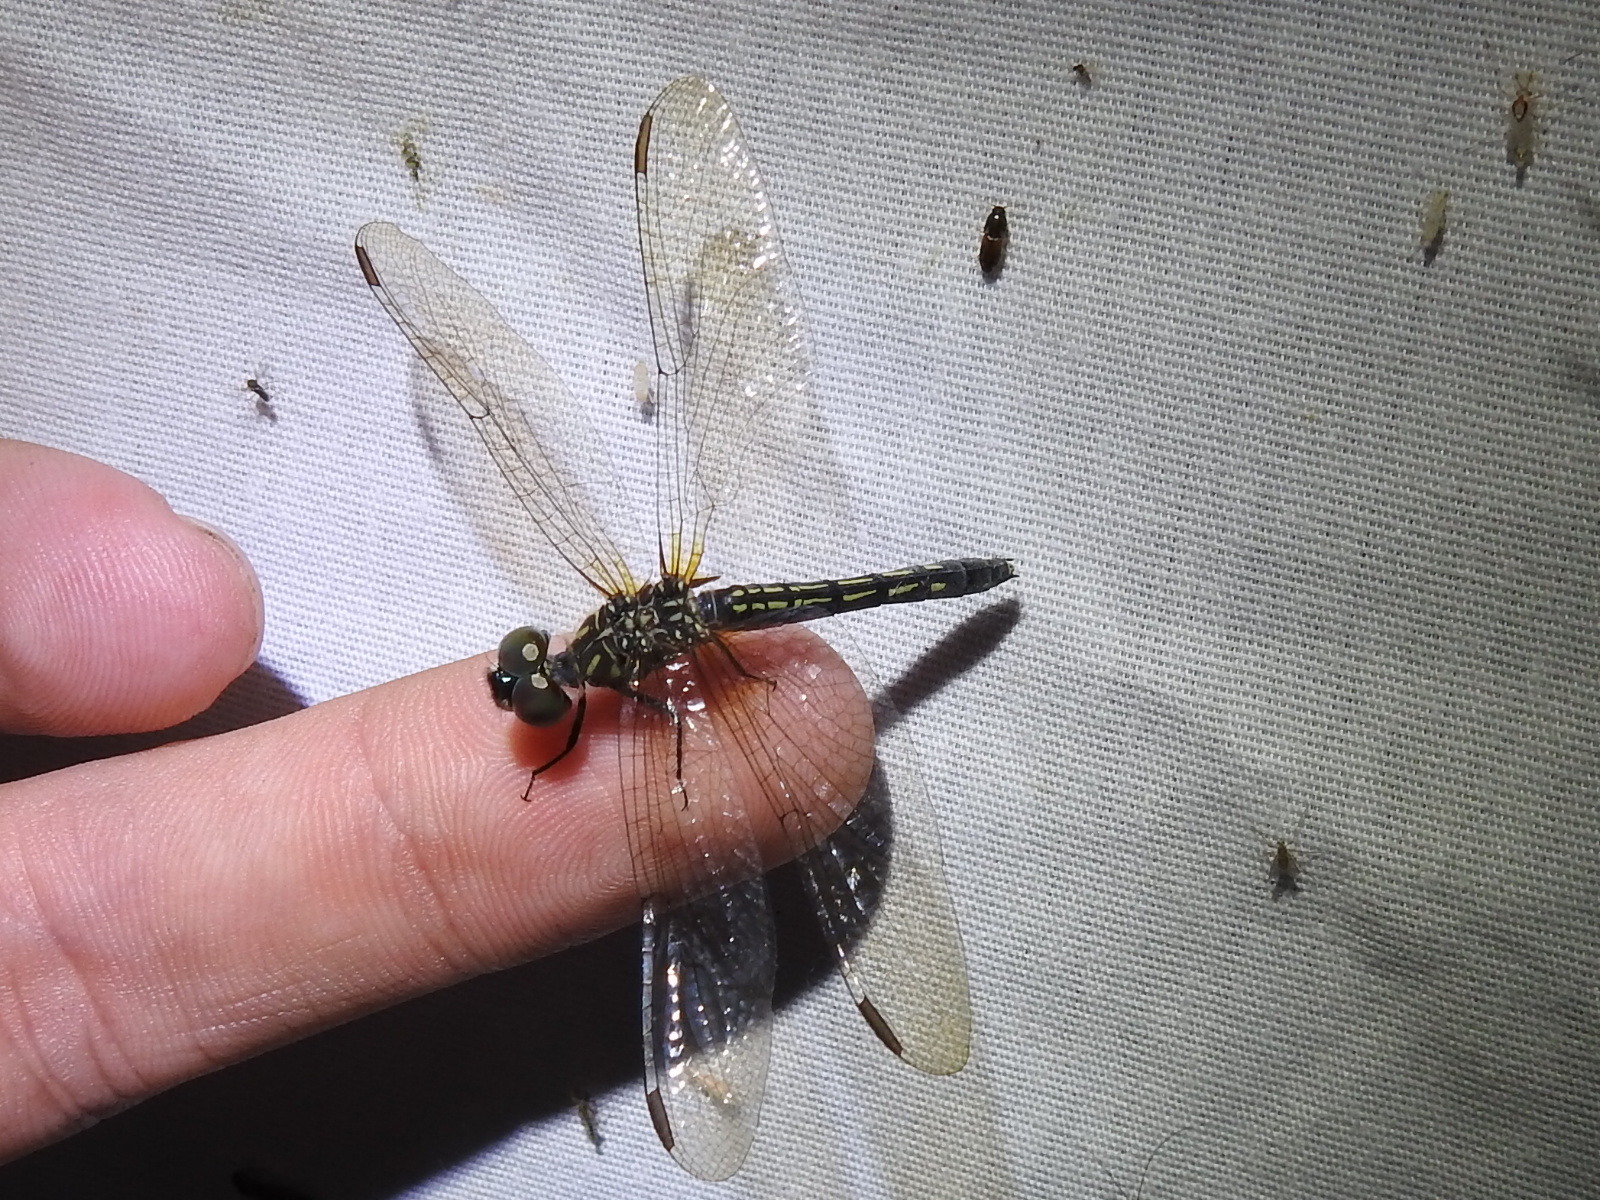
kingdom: Animalia
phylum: Arthropoda
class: Insecta
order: Odonata
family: Libellulidae
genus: Pachydiplax
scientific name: Pachydiplax longipennis
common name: Blue dasher
